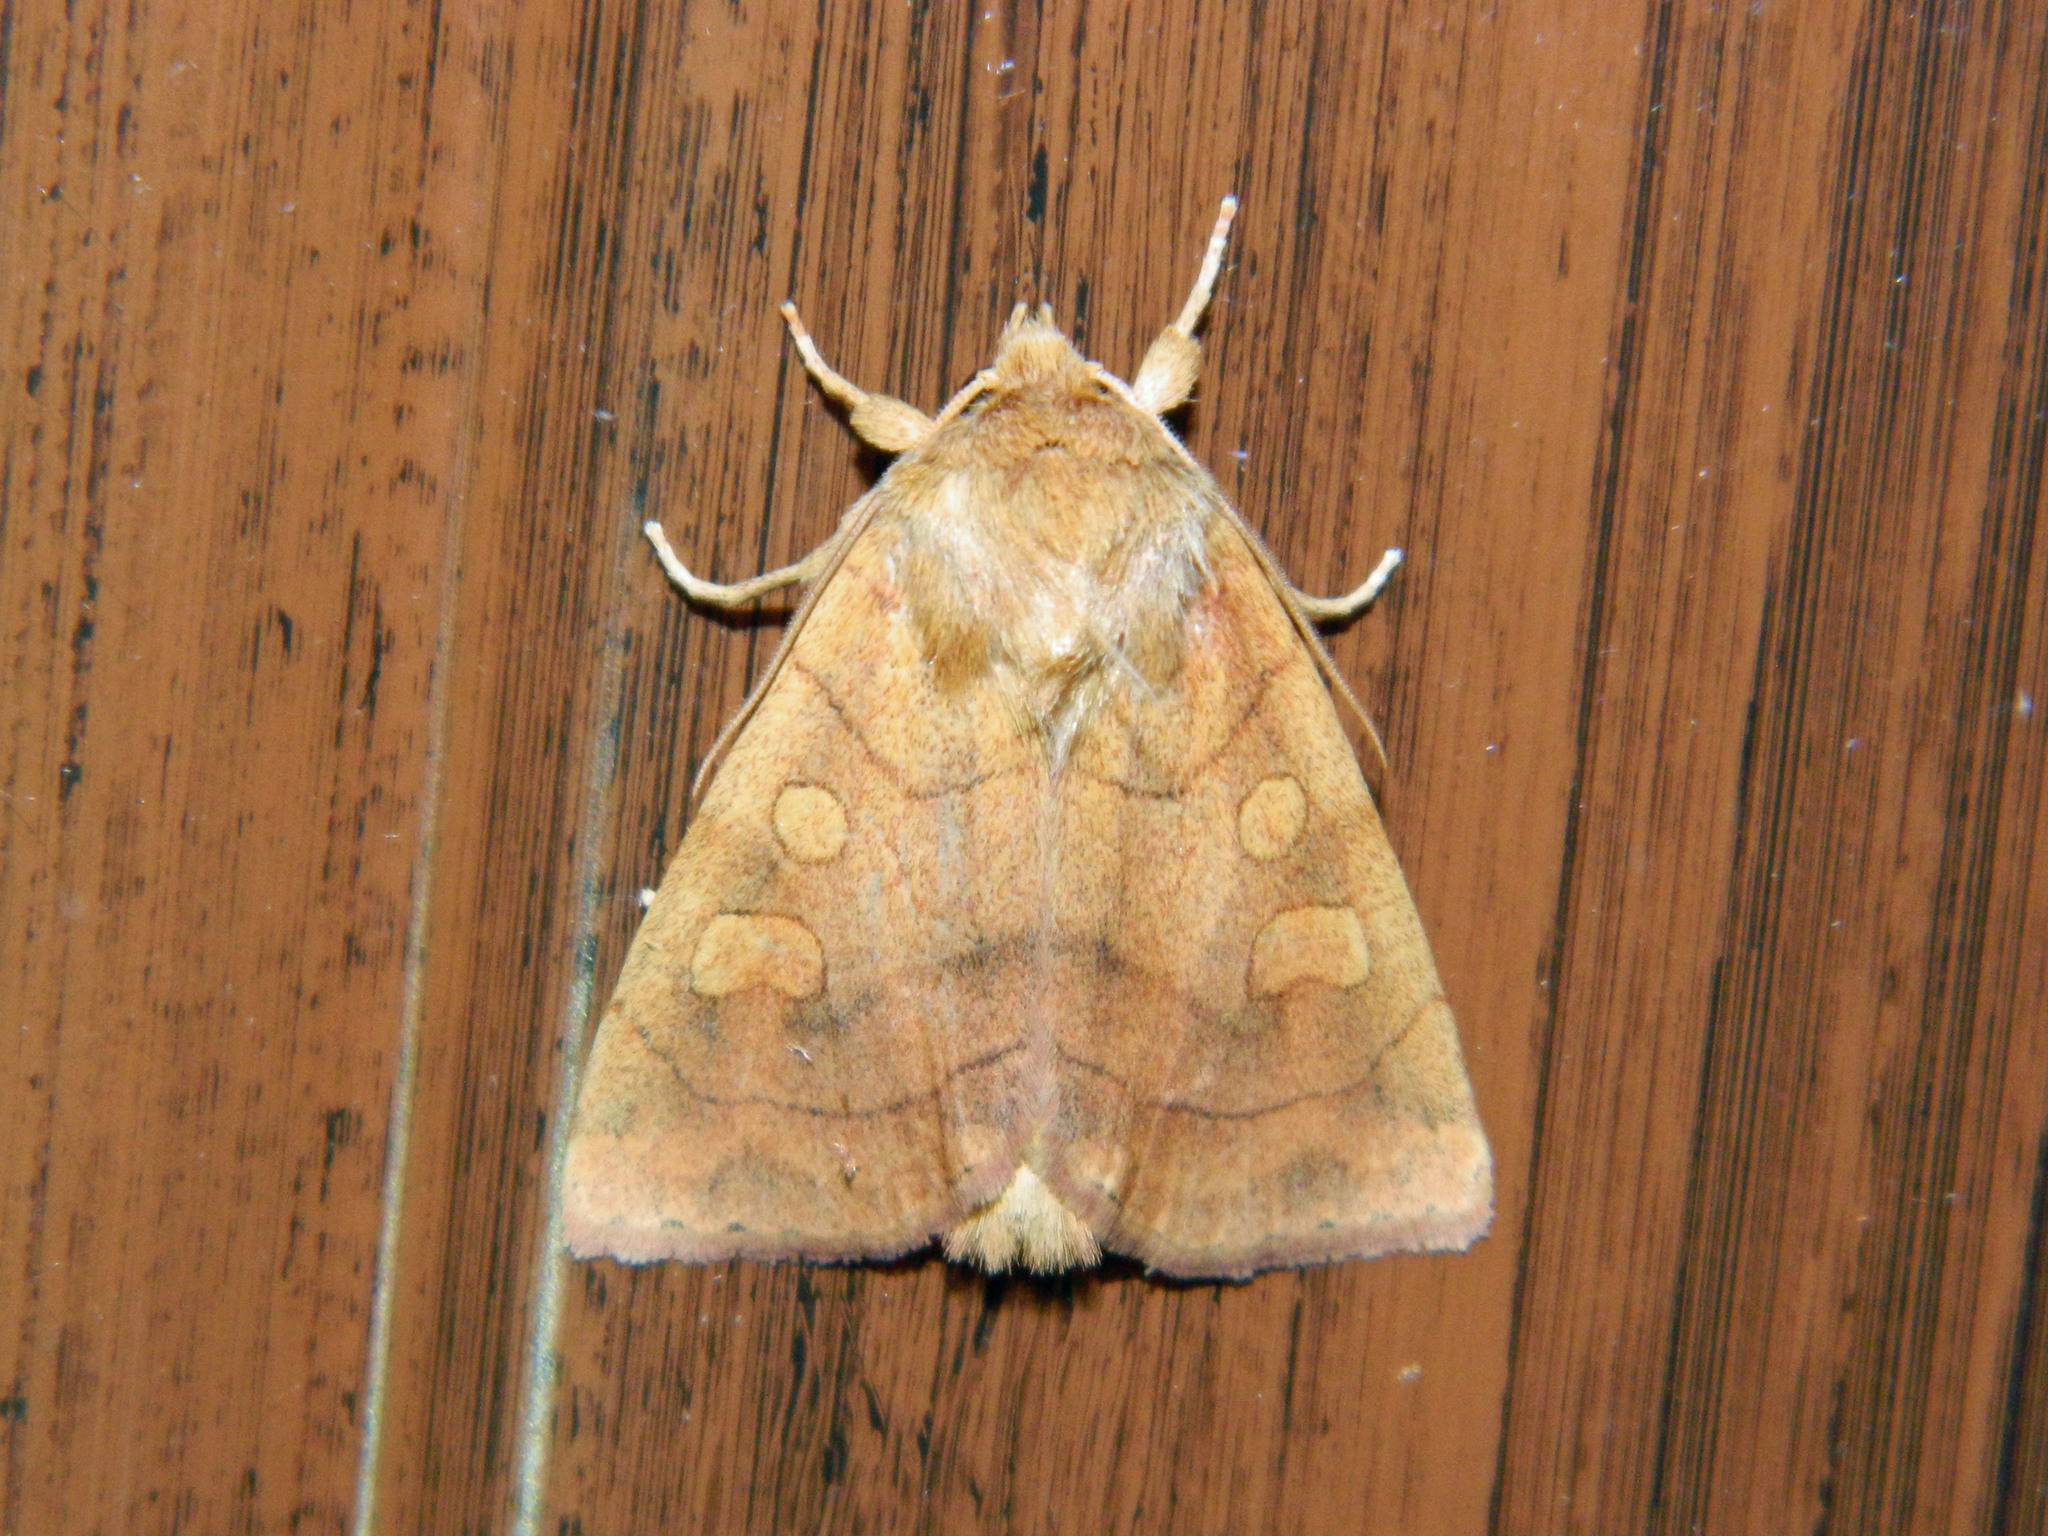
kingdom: Animalia
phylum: Arthropoda
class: Insecta
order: Lepidoptera
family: Noctuidae
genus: Enargia
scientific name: Enargia decolor
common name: Aspen twoleaf tier moth
